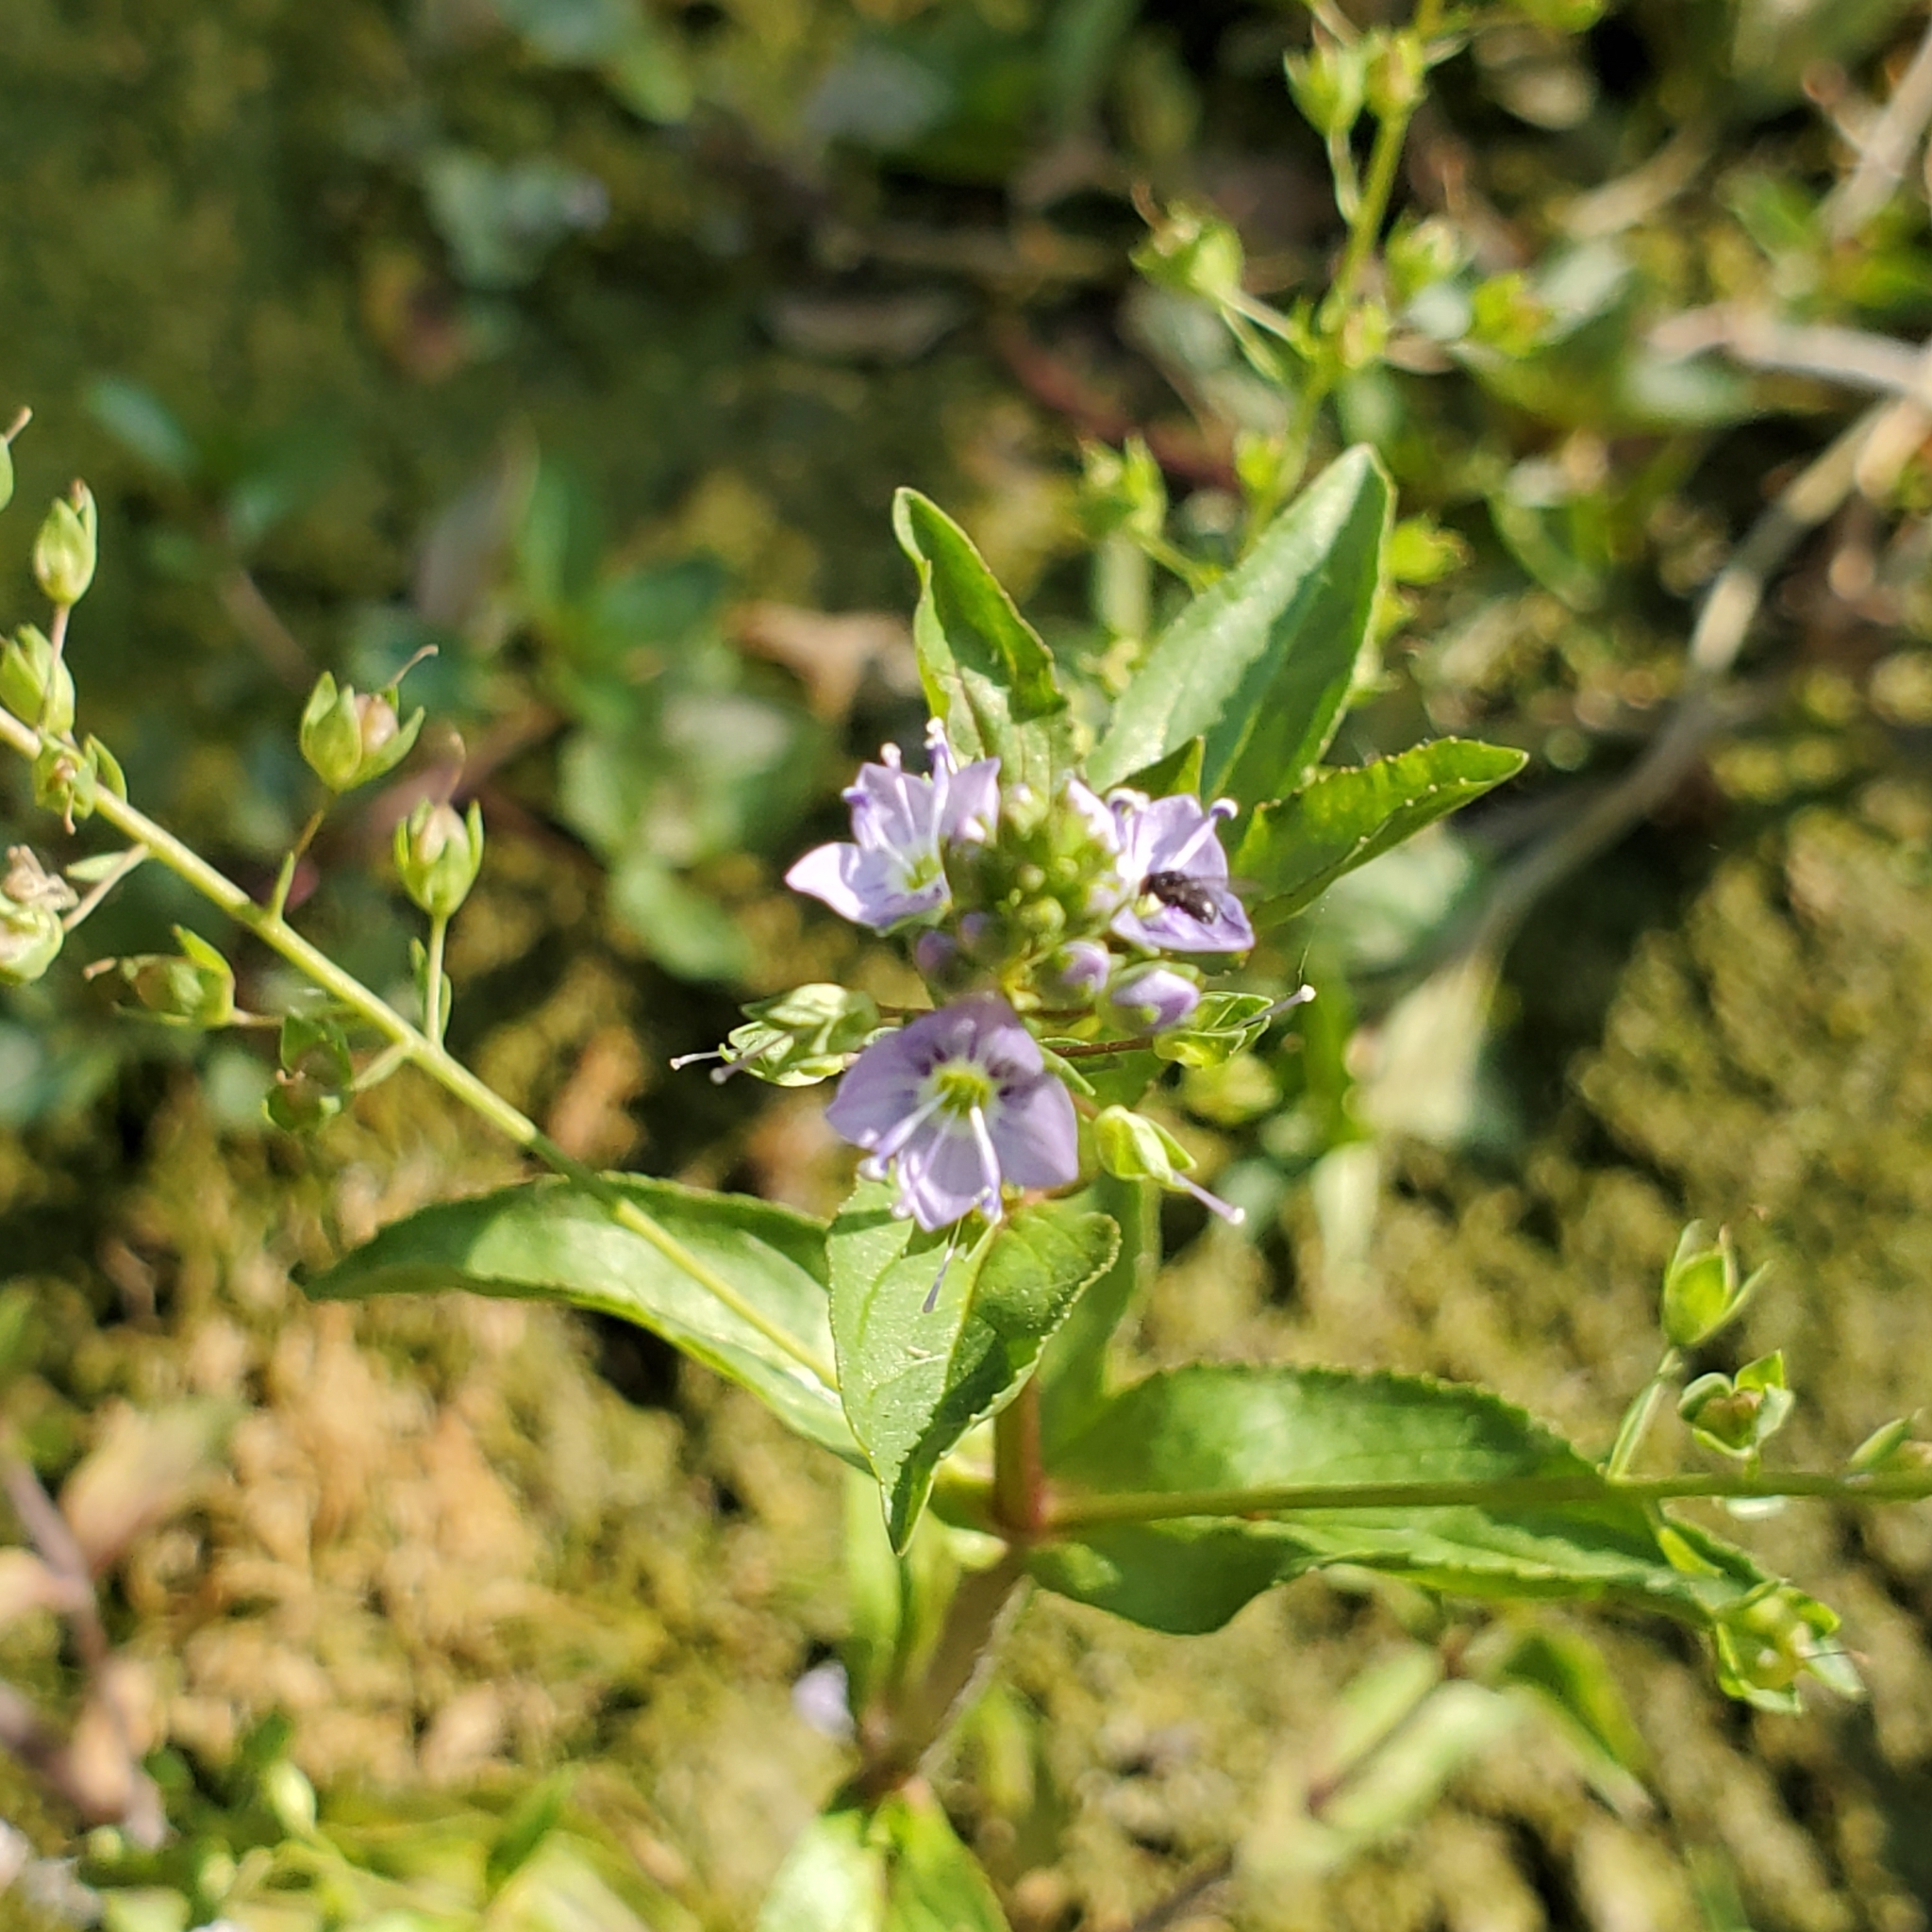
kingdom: Plantae
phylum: Tracheophyta
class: Magnoliopsida
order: Lamiales
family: Plantaginaceae
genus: Veronica
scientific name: Veronica anagallis-aquatica
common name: Water speedwell
